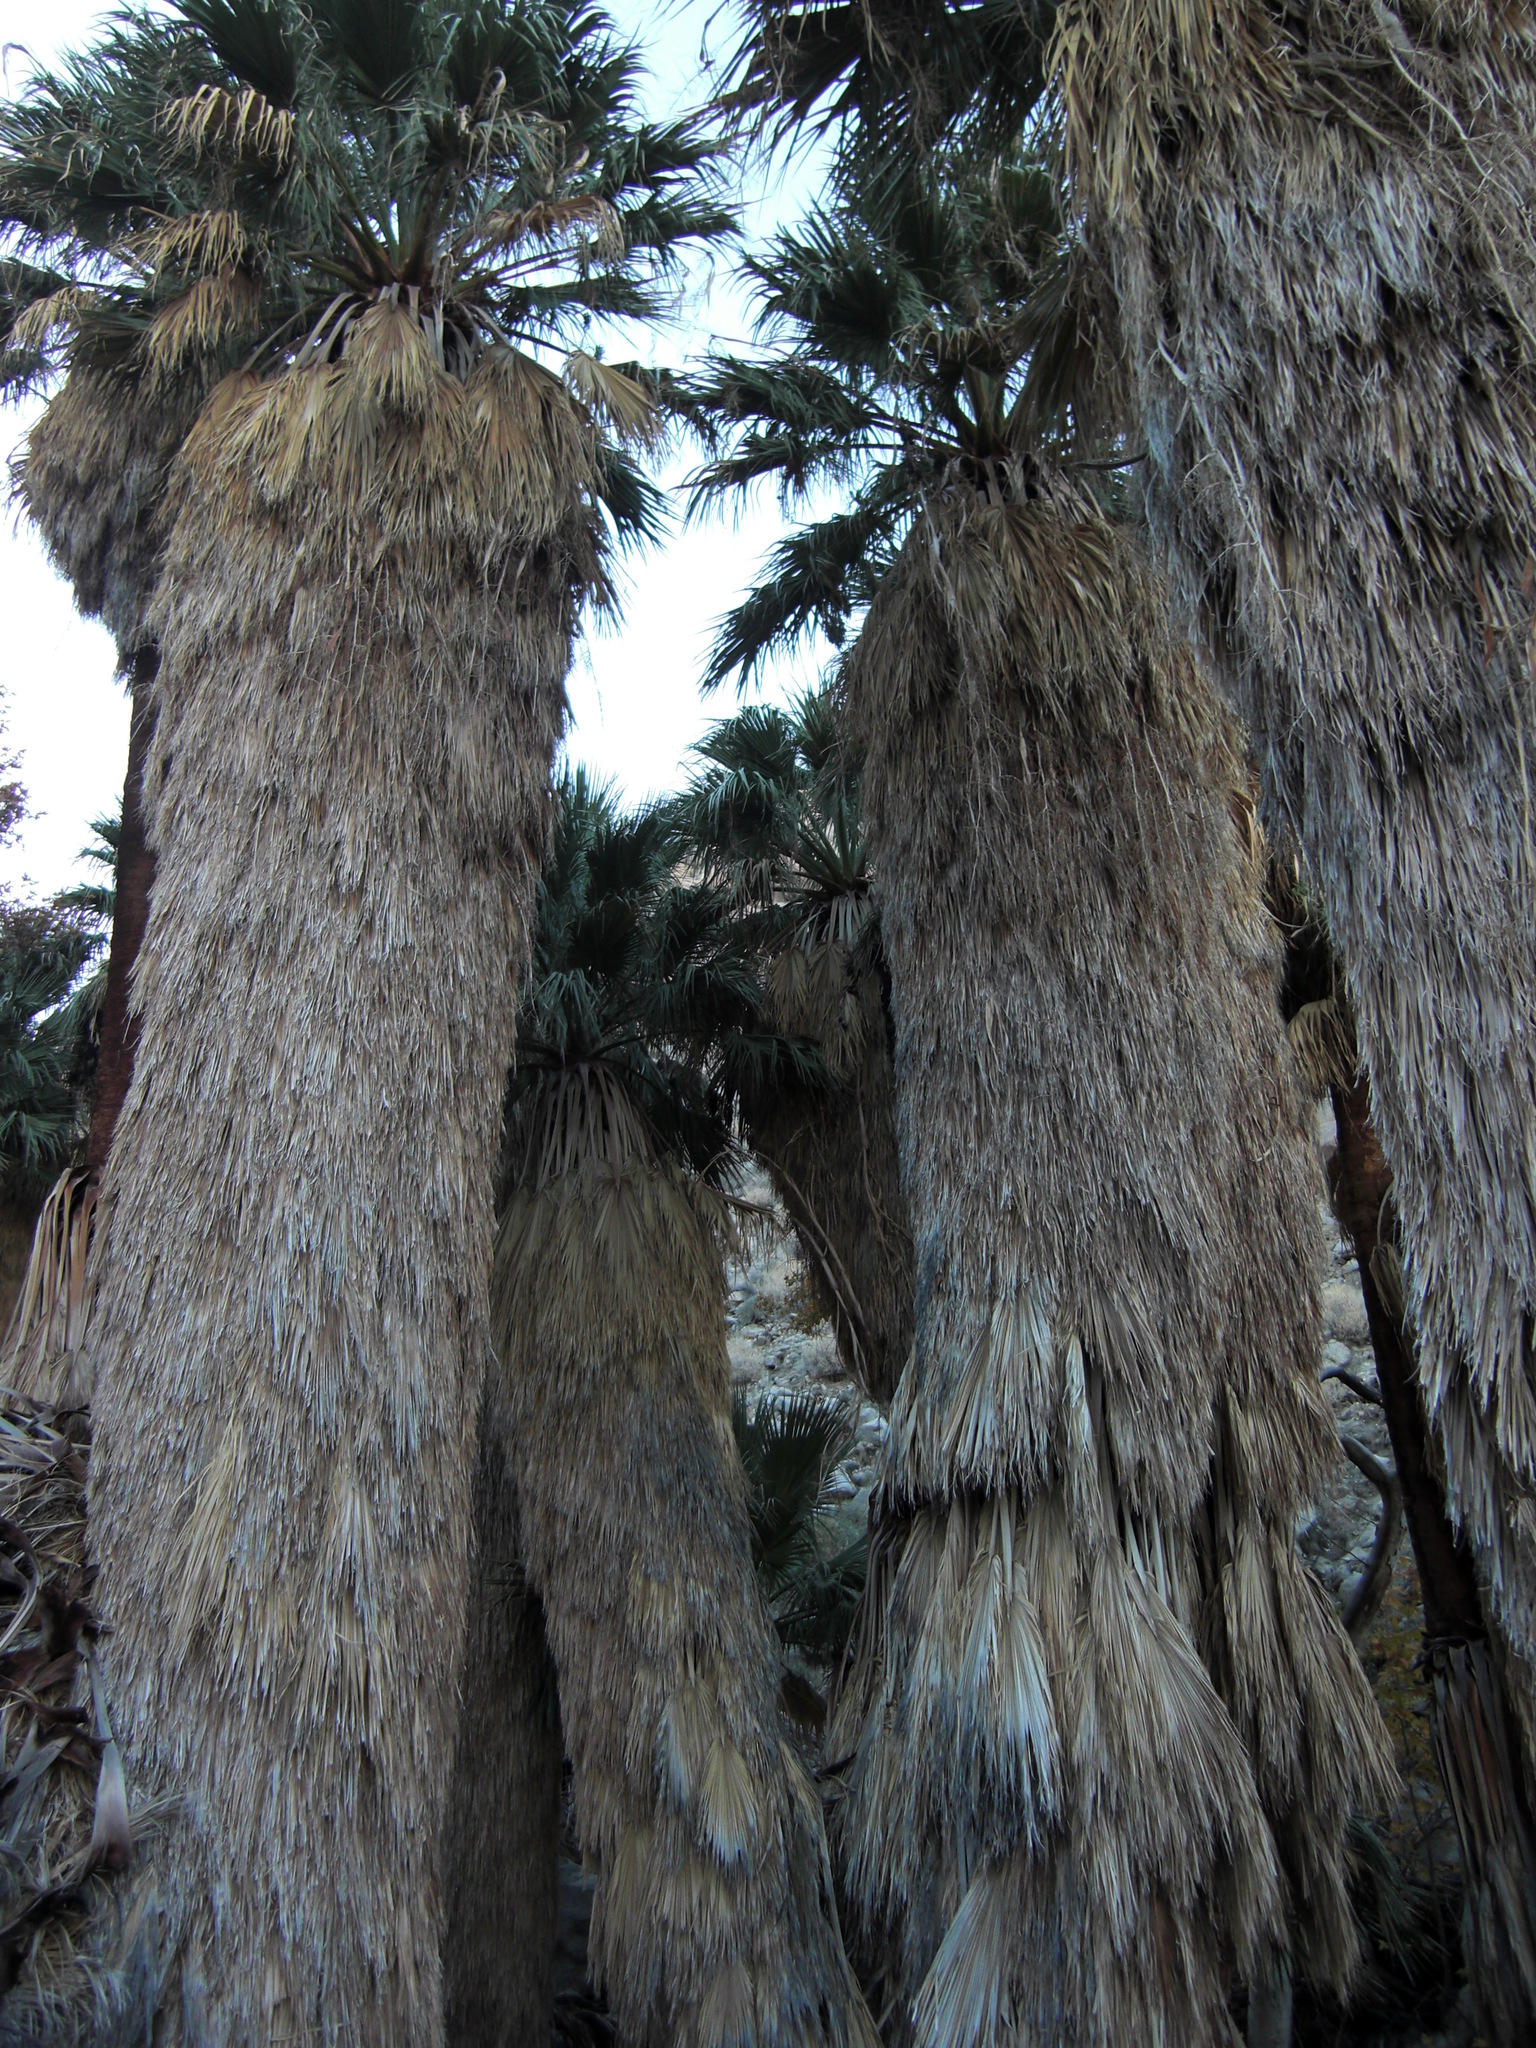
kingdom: Plantae
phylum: Tracheophyta
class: Liliopsida
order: Arecales
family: Arecaceae
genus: Washingtonia
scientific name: Washingtonia filifera
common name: California fan palm
